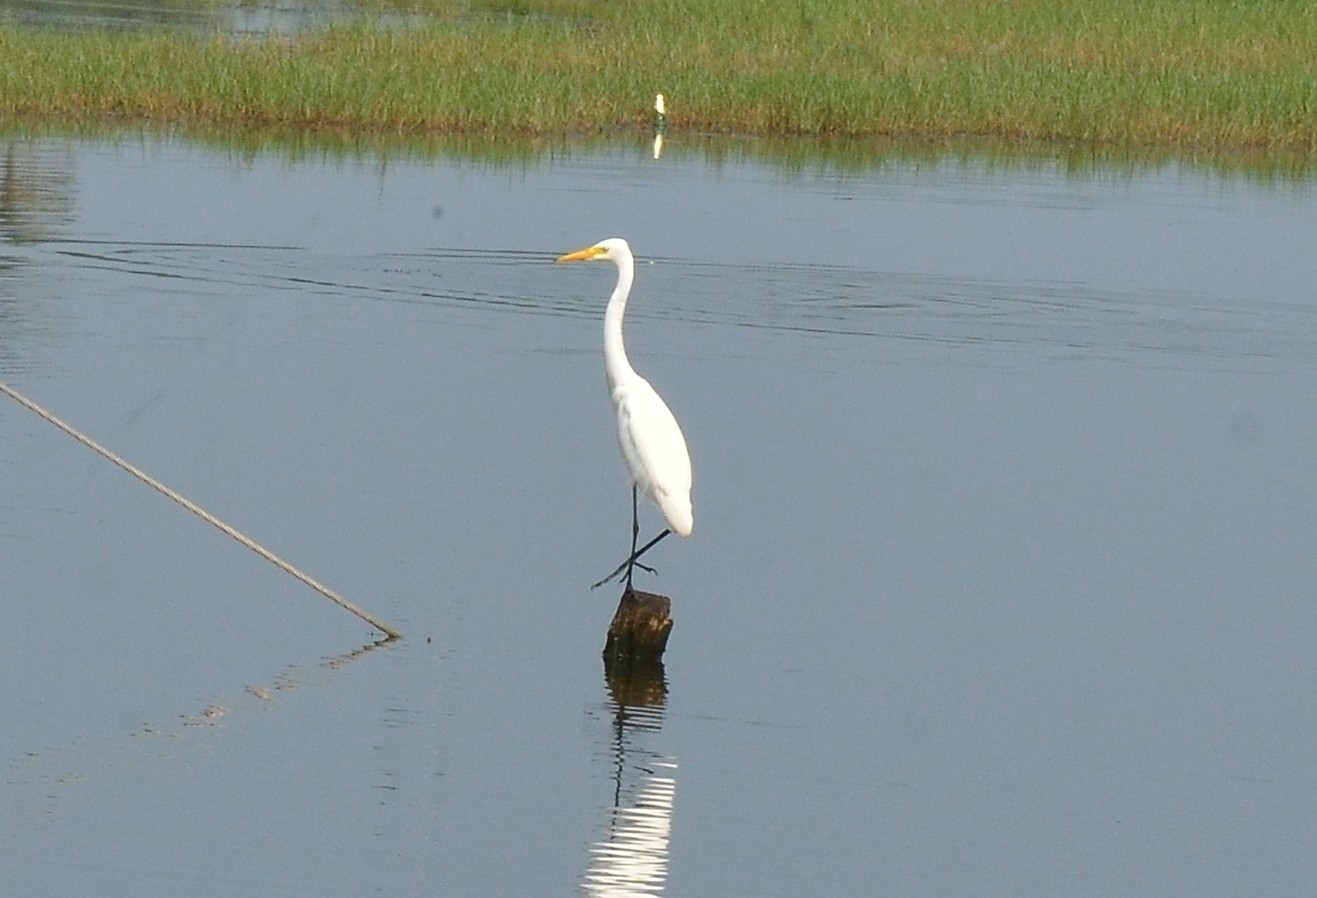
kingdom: Animalia
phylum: Chordata
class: Aves
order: Pelecaniformes
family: Ardeidae
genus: Egretta
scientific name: Egretta intermedia
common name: Intermediate egret
